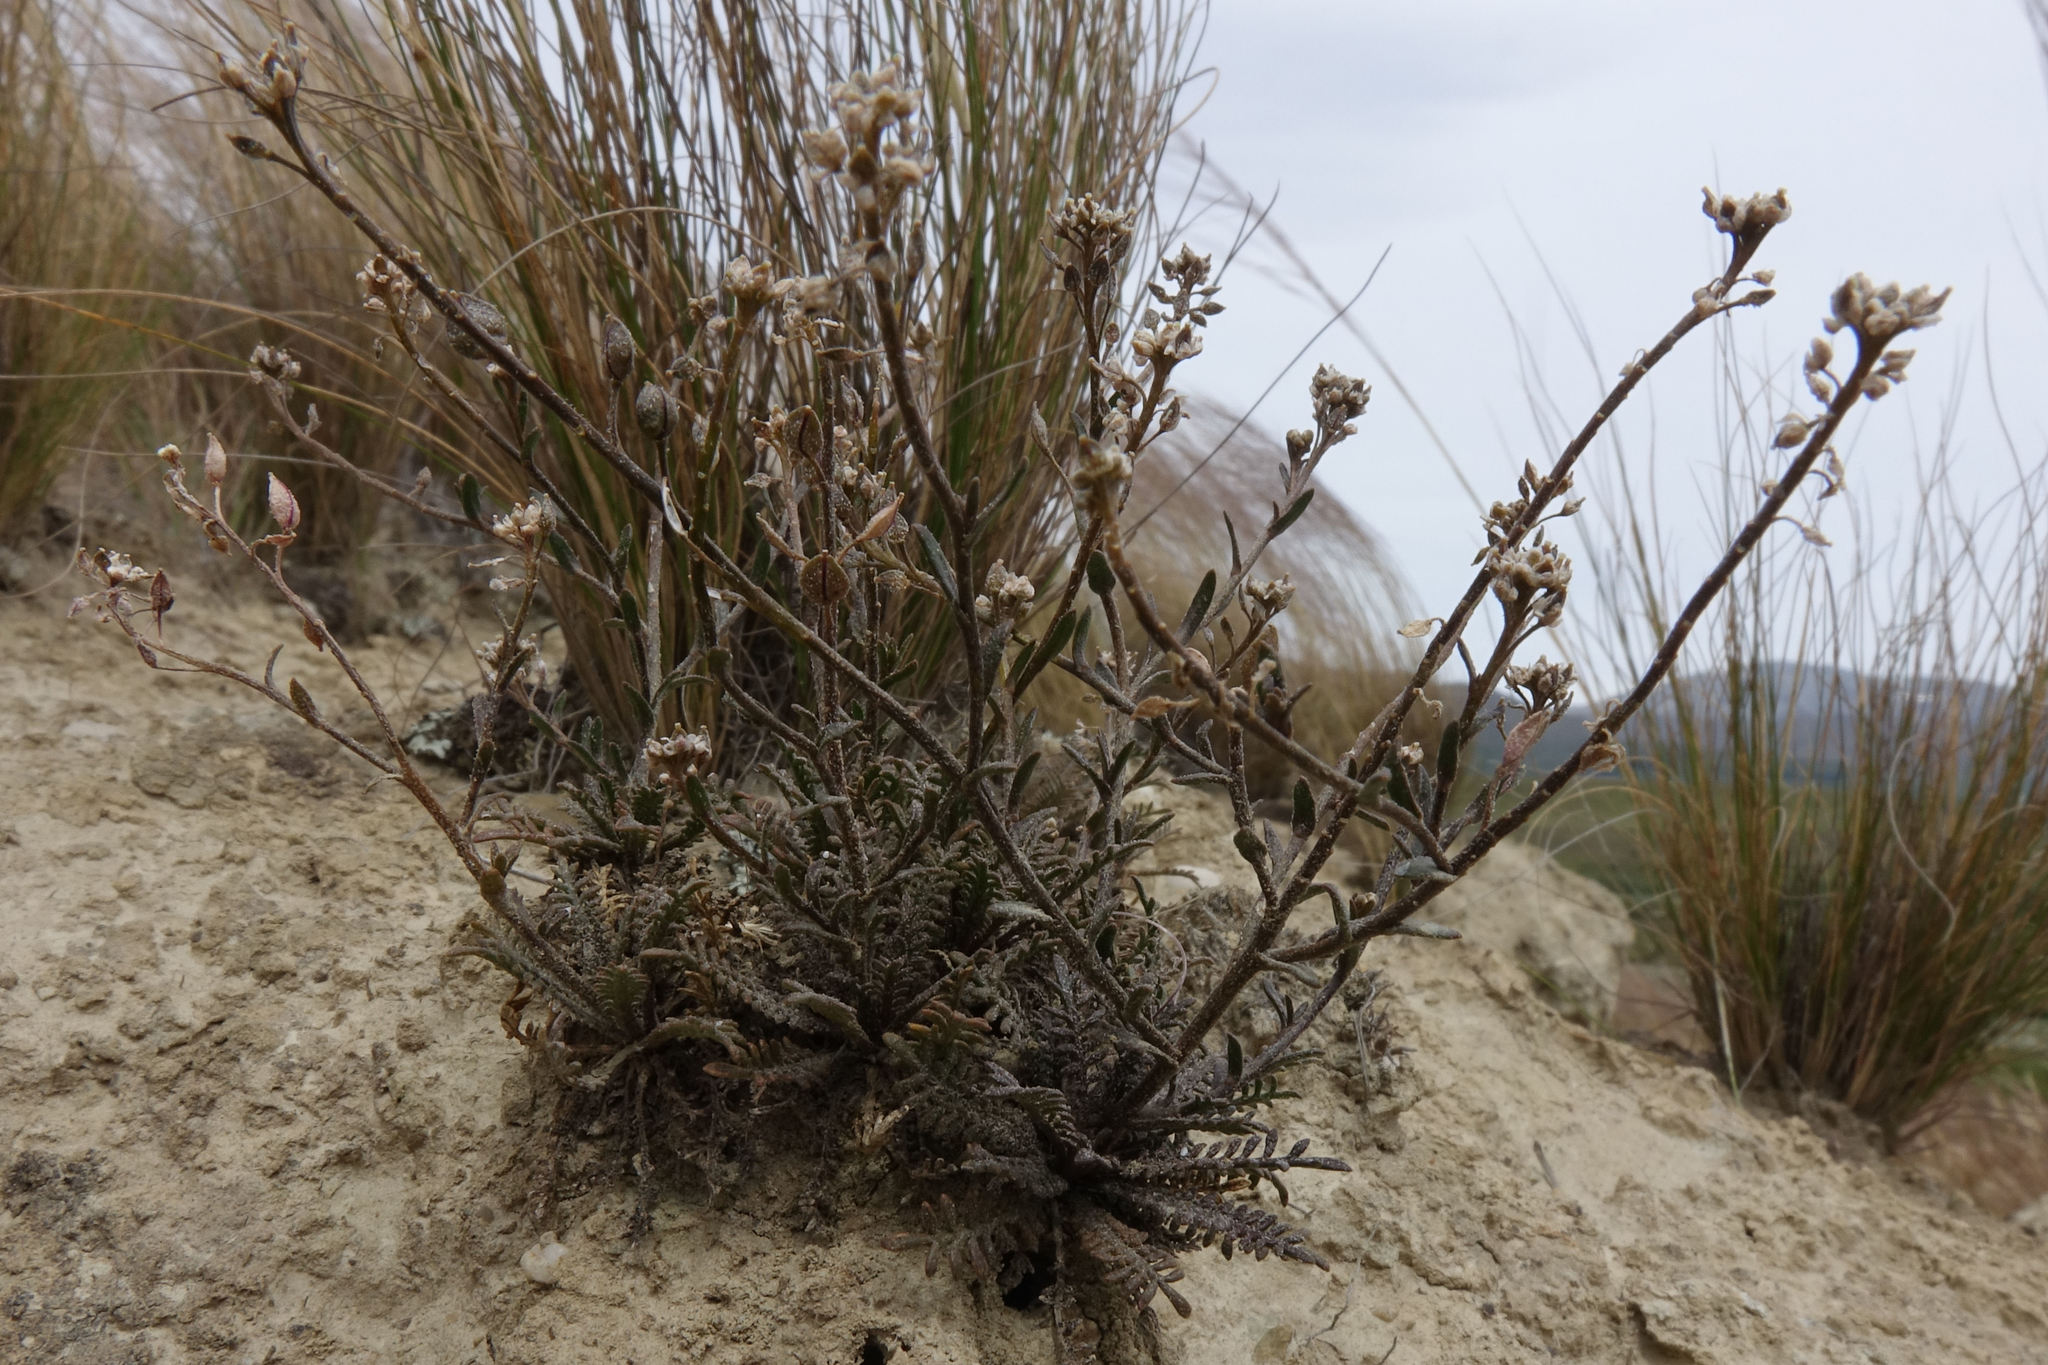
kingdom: Plantae
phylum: Tracheophyta
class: Magnoliopsida
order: Brassicales
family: Brassicaceae
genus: Lepidium
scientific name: Lepidium sisymbrioides
